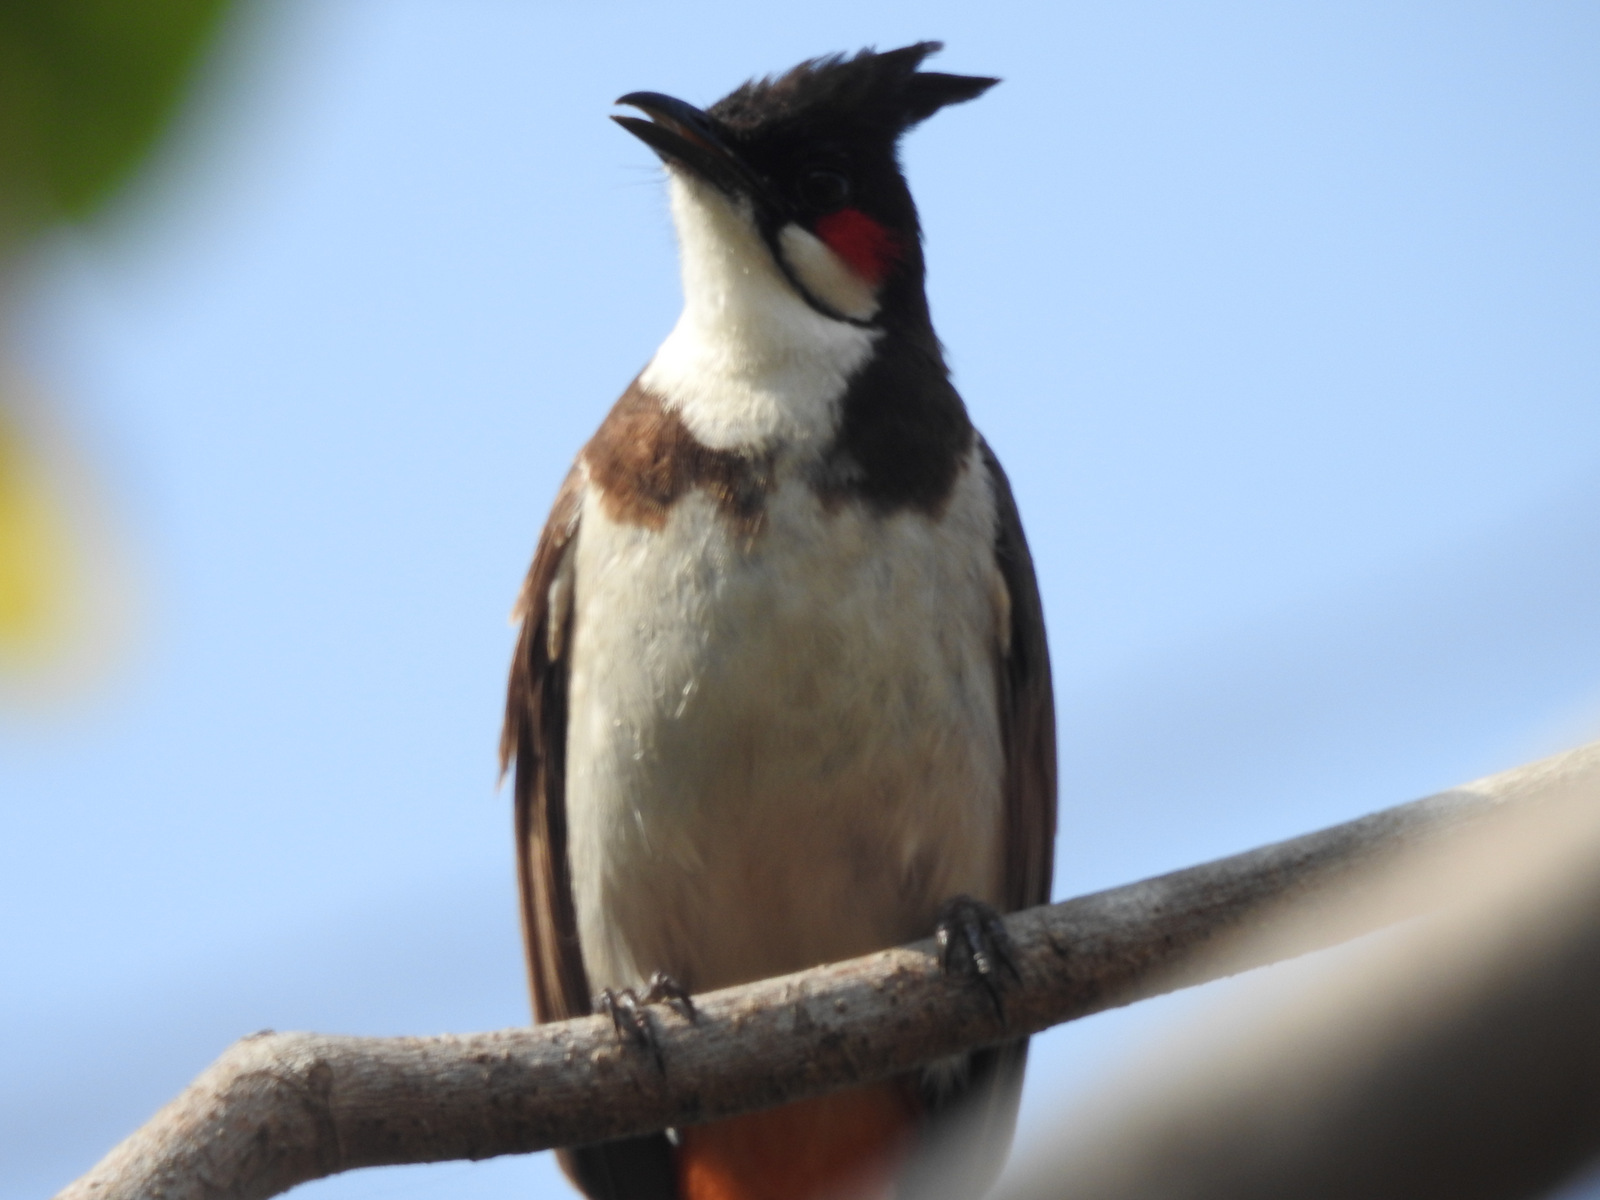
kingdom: Animalia
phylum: Chordata
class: Aves
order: Passeriformes
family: Pycnonotidae
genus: Pycnonotus
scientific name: Pycnonotus jocosus
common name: Red-whiskered bulbul
